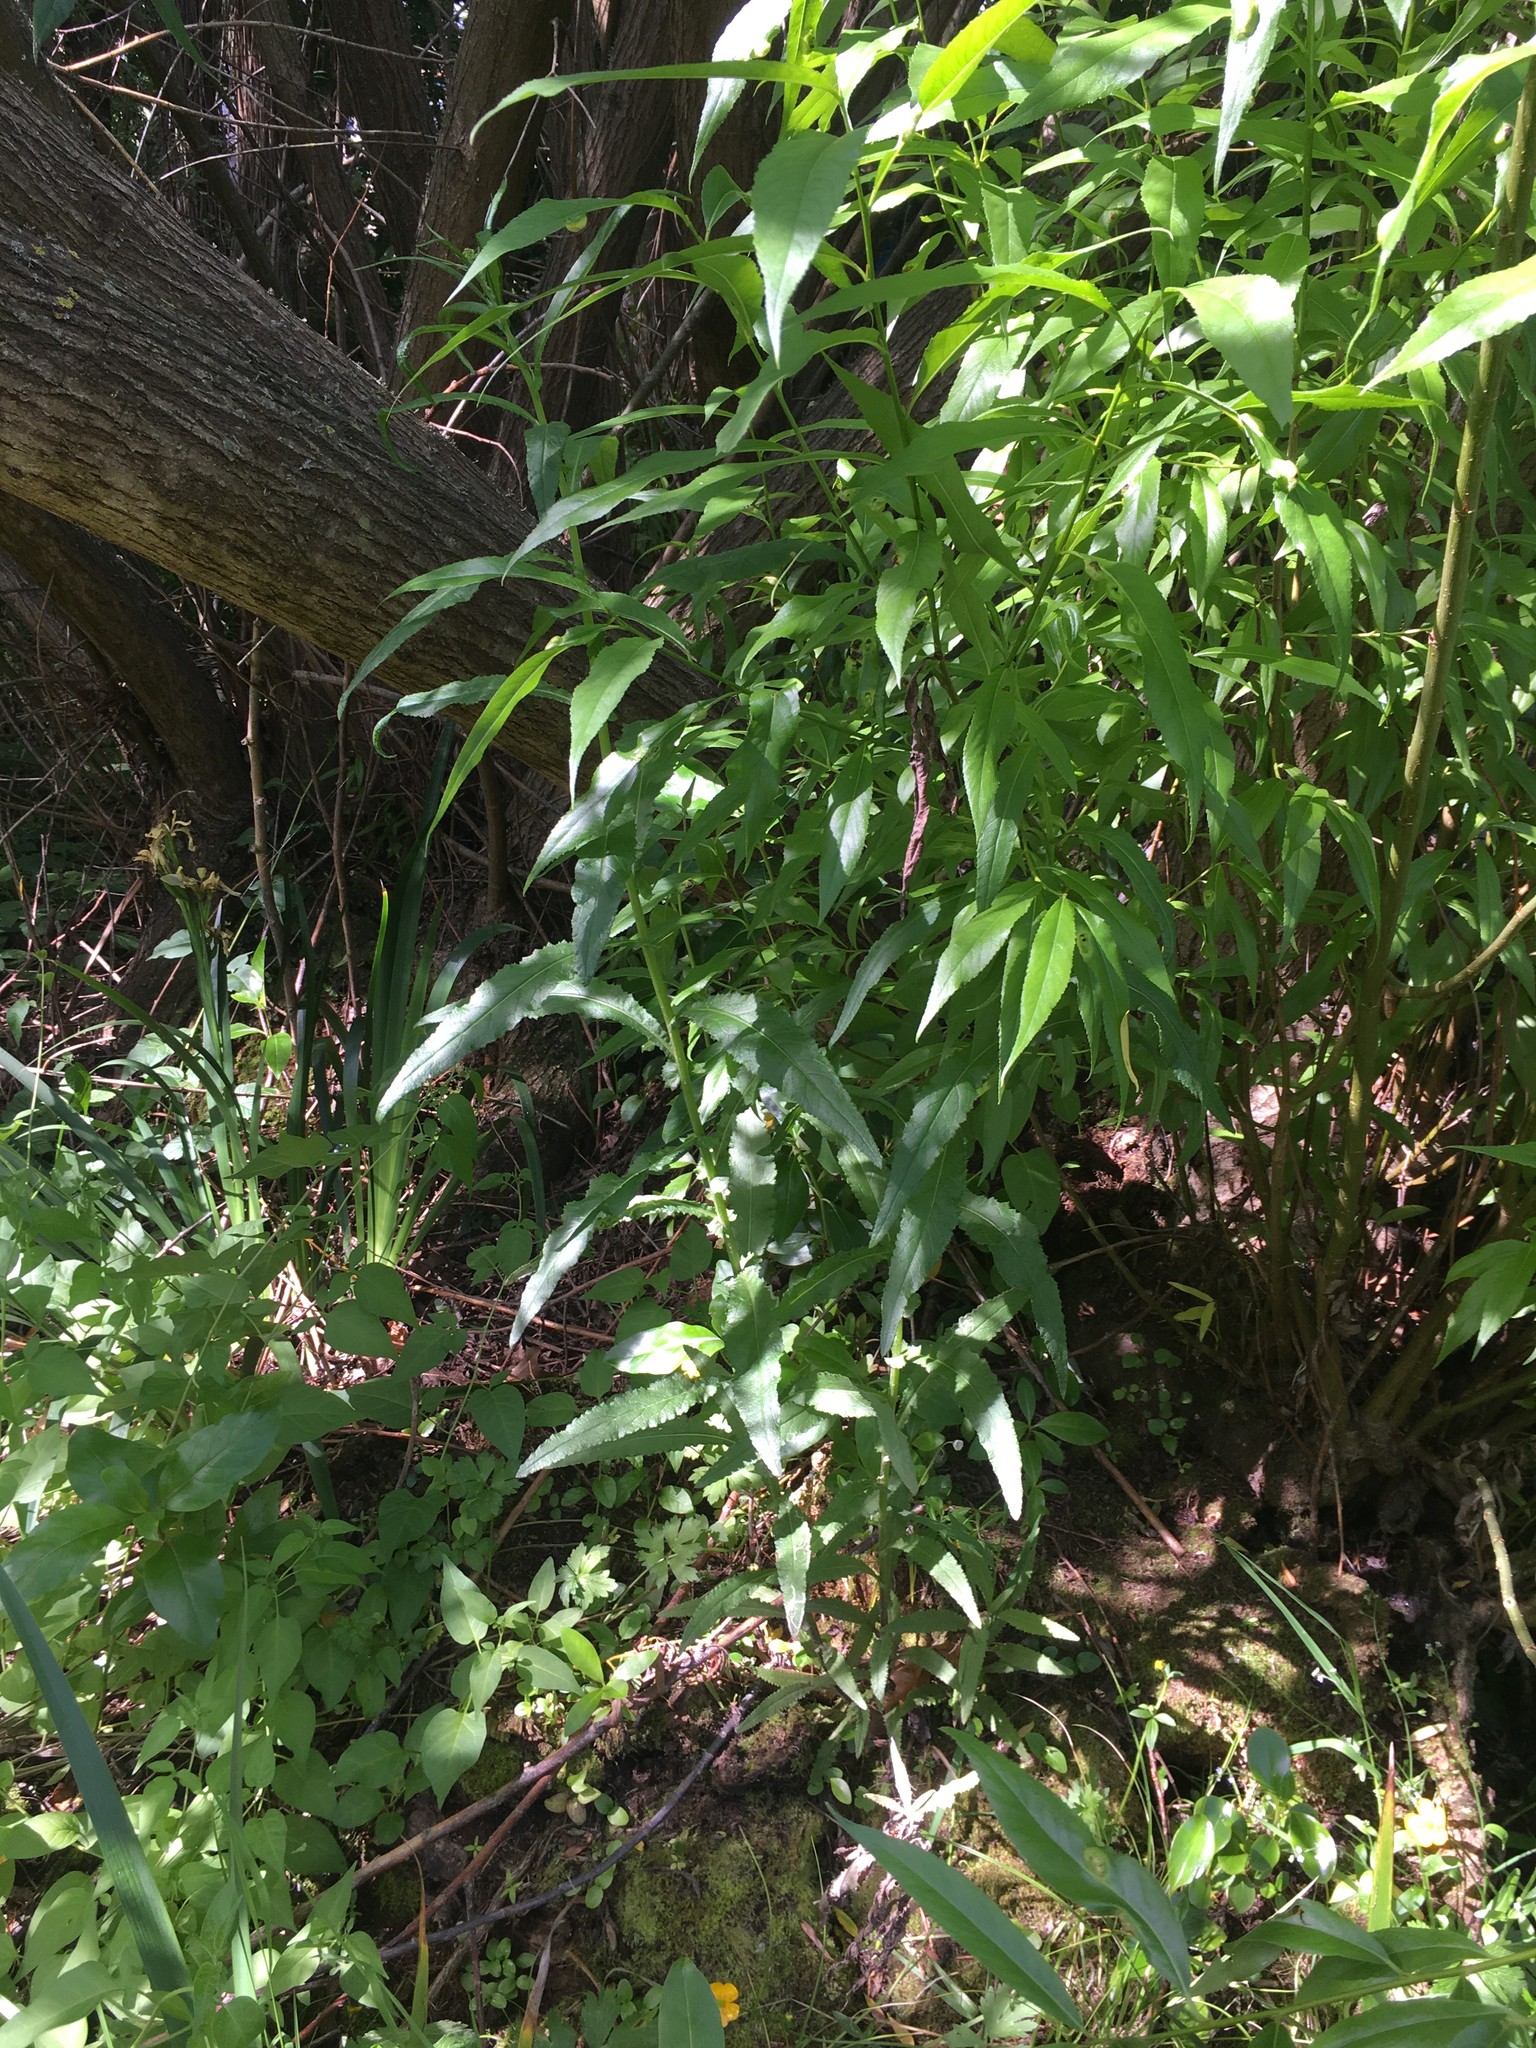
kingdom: Plantae
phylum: Tracheophyta
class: Magnoliopsida
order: Asterales
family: Asteraceae
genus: Senecio
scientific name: Senecio minimus
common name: Toothed fireweed
